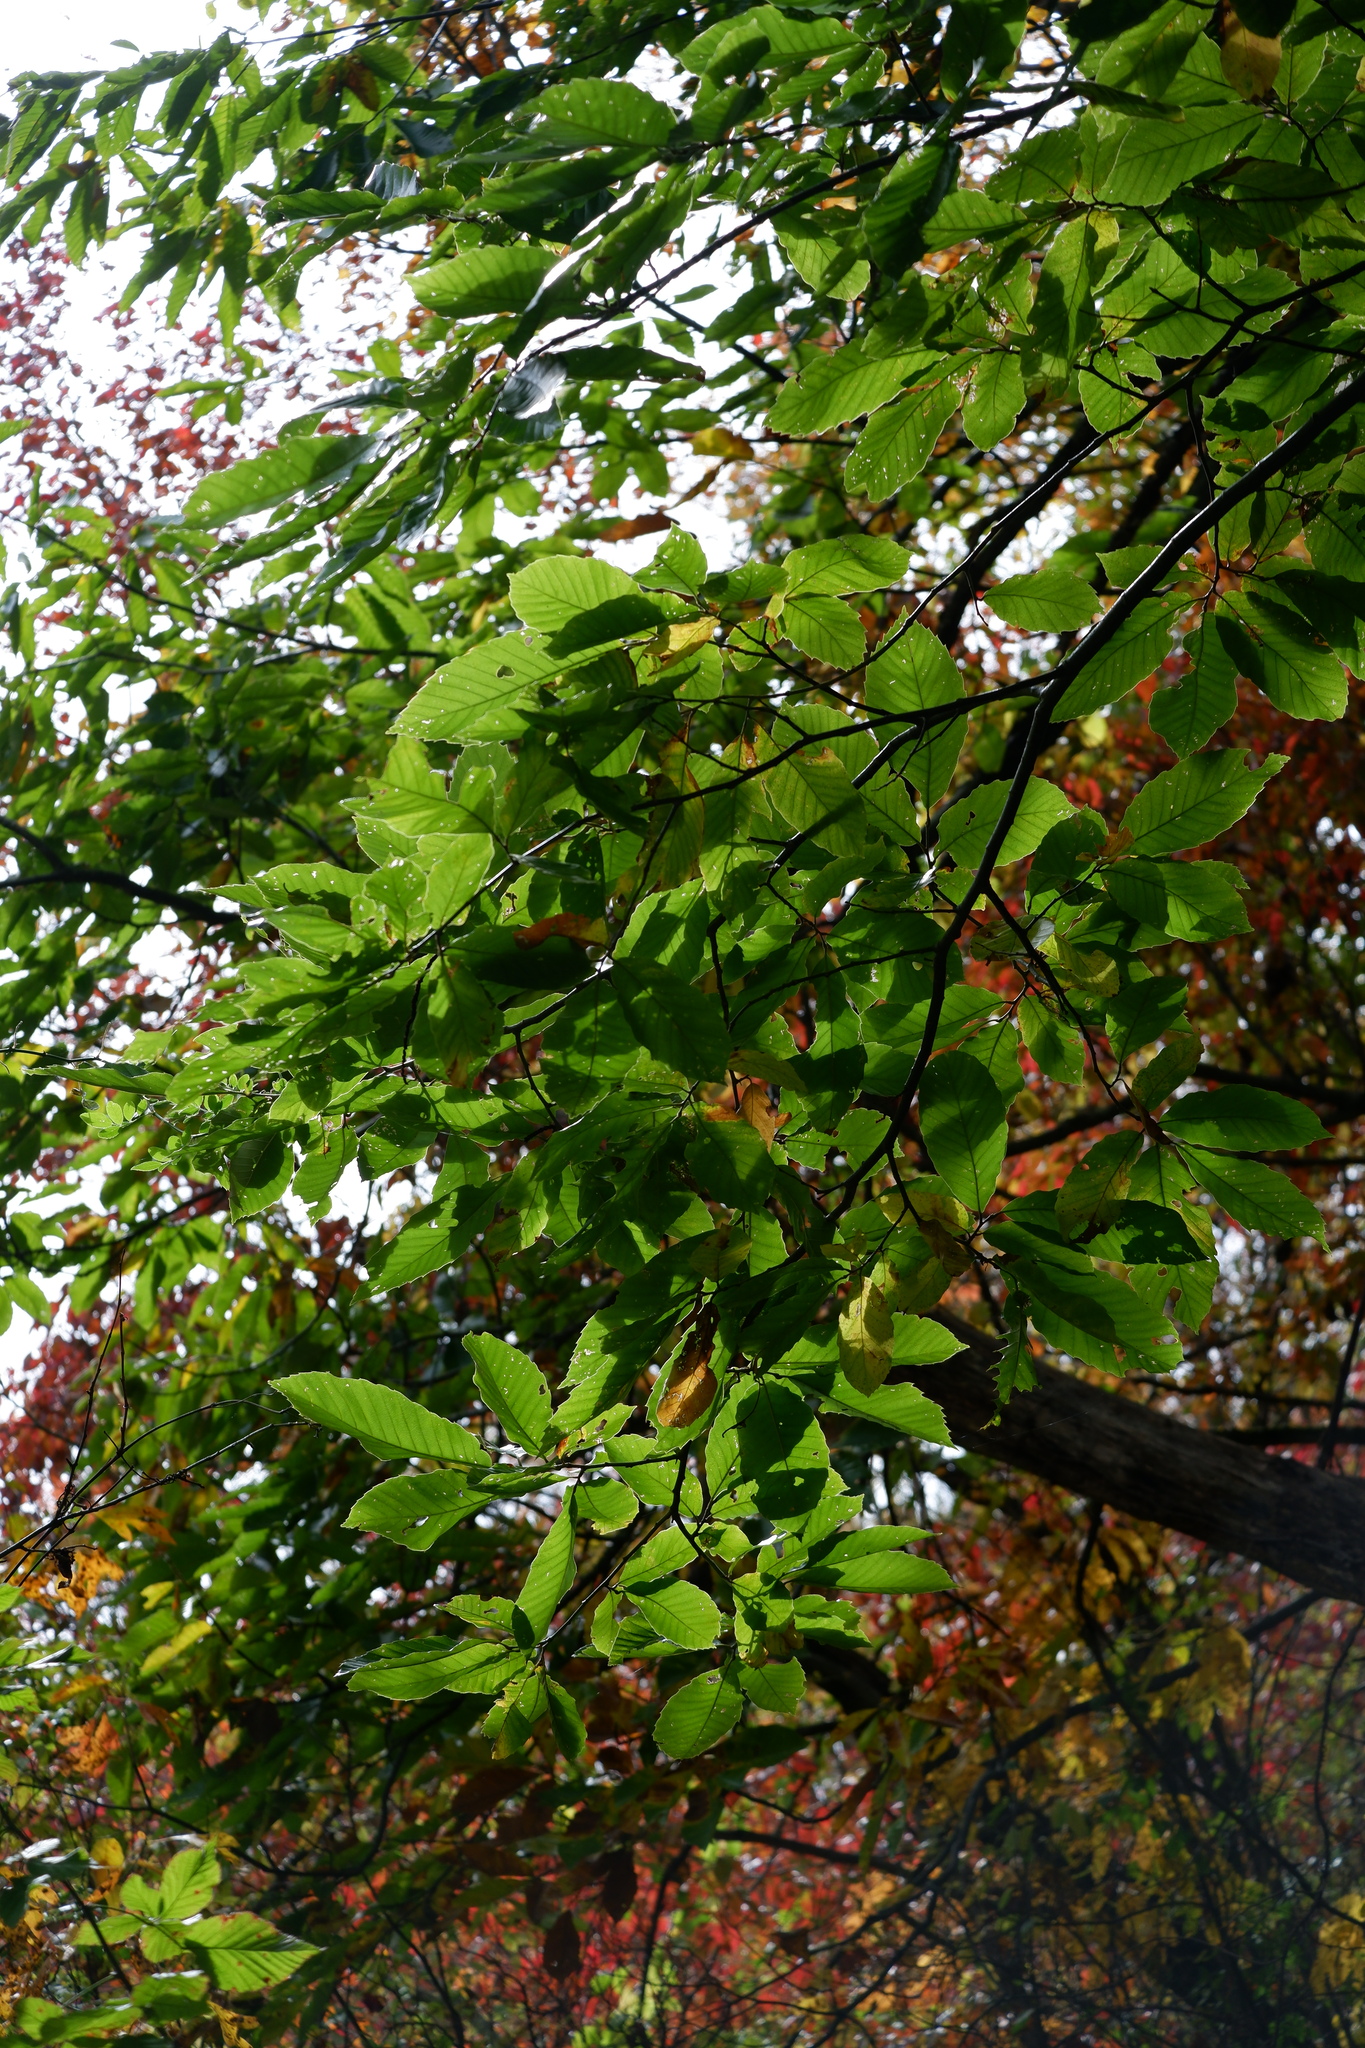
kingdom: Plantae
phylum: Tracheophyta
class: Magnoliopsida
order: Fagales
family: Fagaceae
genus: Castanea
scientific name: Castanea mollissima
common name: Chinese chestnut
